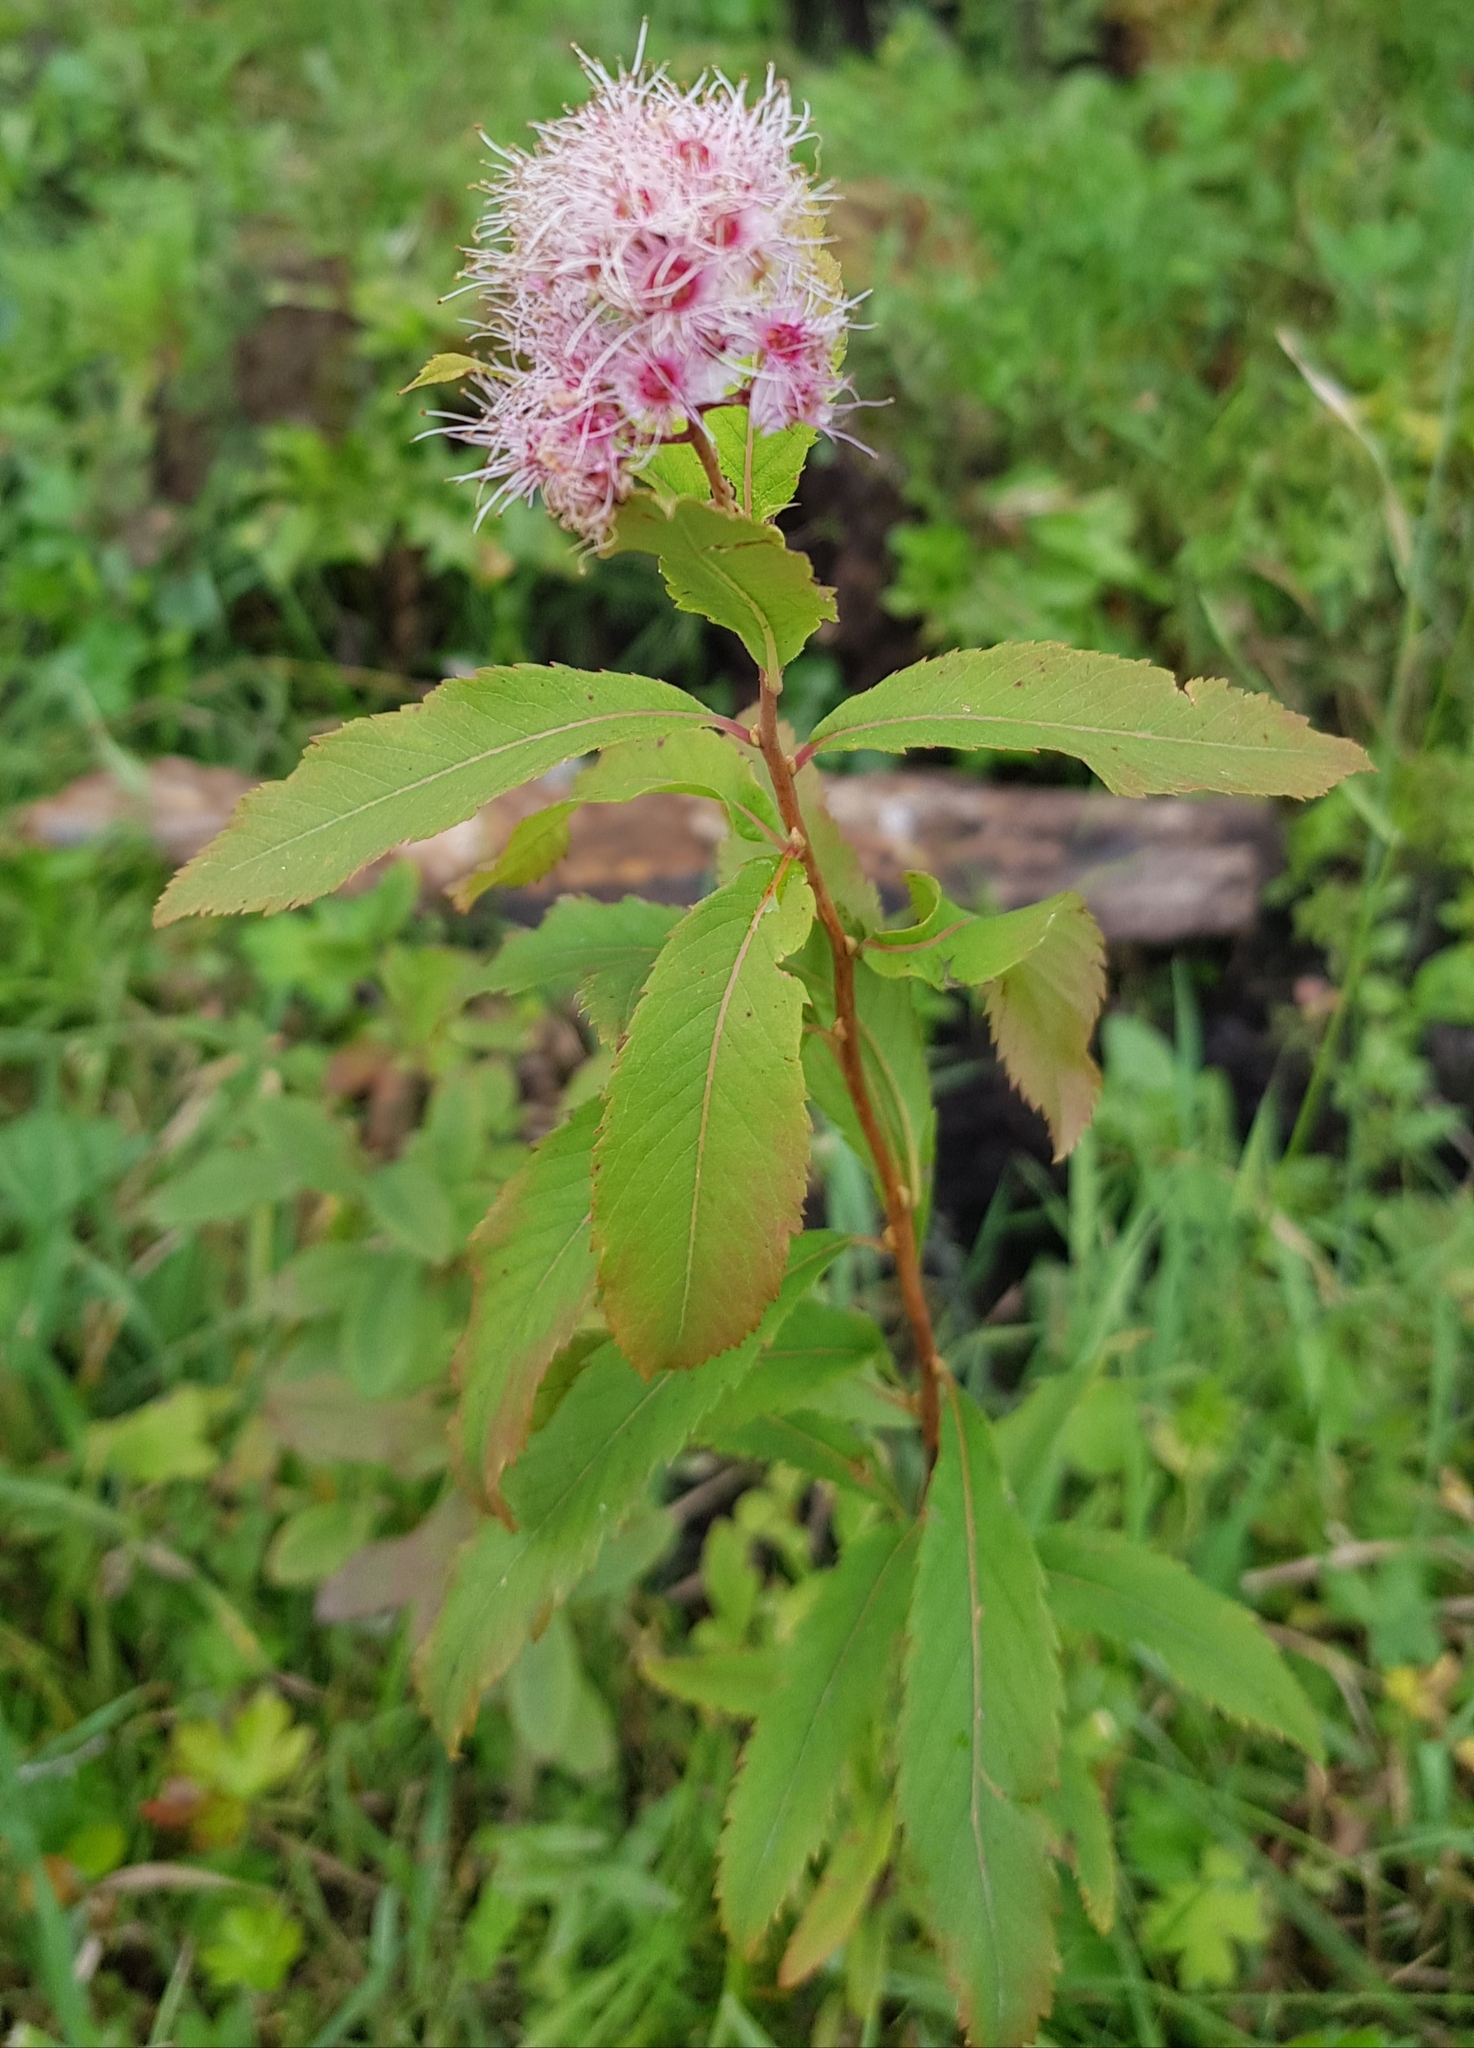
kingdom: Plantae
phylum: Tracheophyta
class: Magnoliopsida
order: Rosales
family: Rosaceae
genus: Spiraea
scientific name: Spiraea salicifolia
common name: Bridewort
